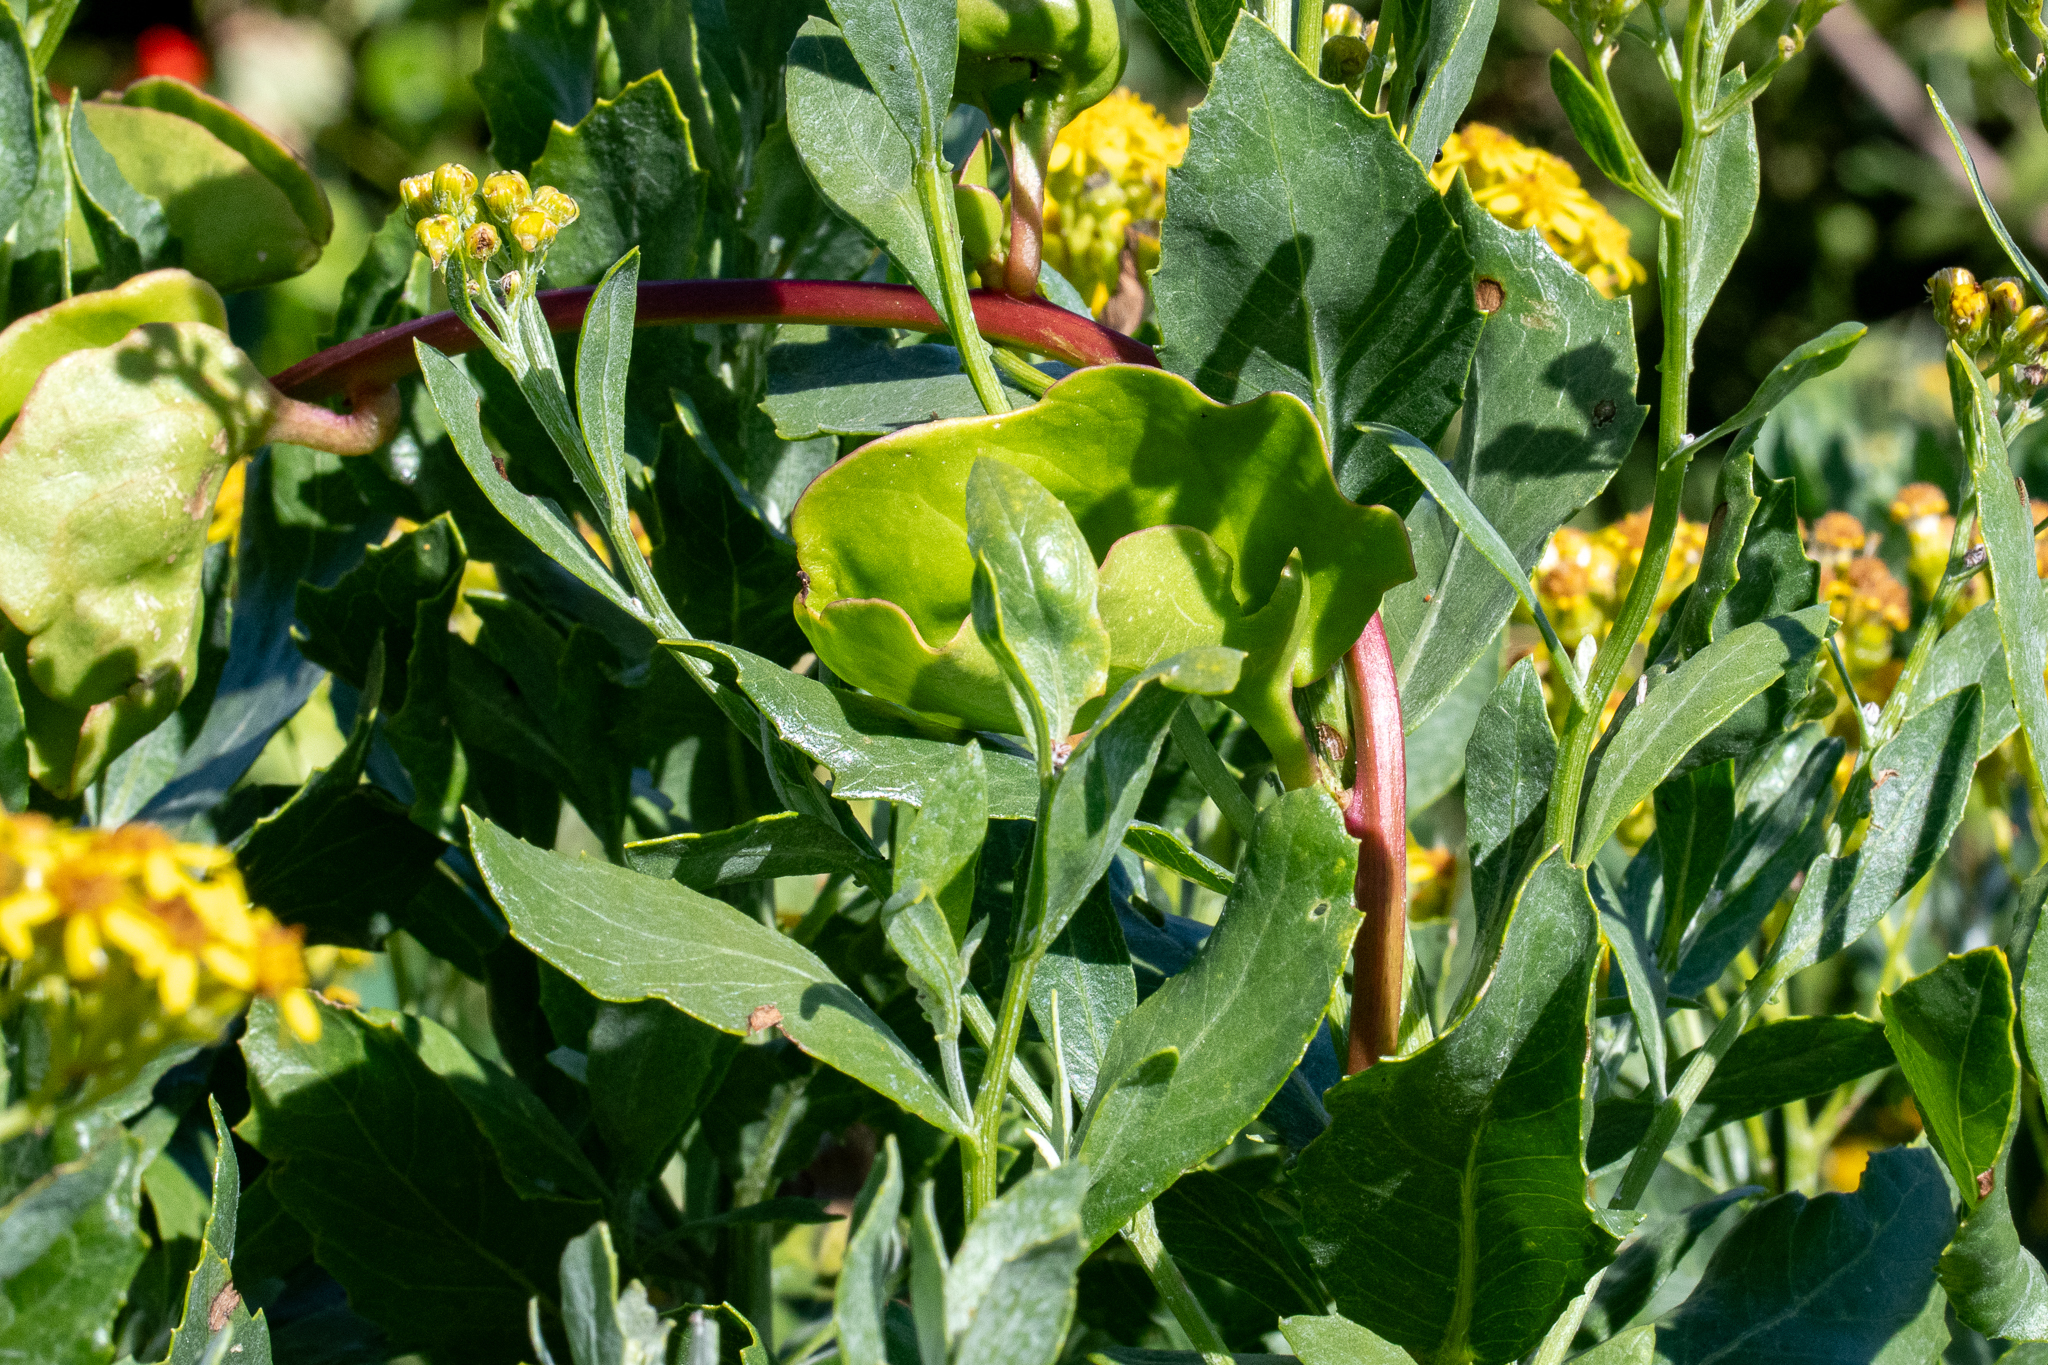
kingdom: Plantae
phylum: Tracheophyta
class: Magnoliopsida
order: Caryophyllales
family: Basellaceae
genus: Anredera
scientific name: Anredera cordifolia
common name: Heartleaf madeiravine
